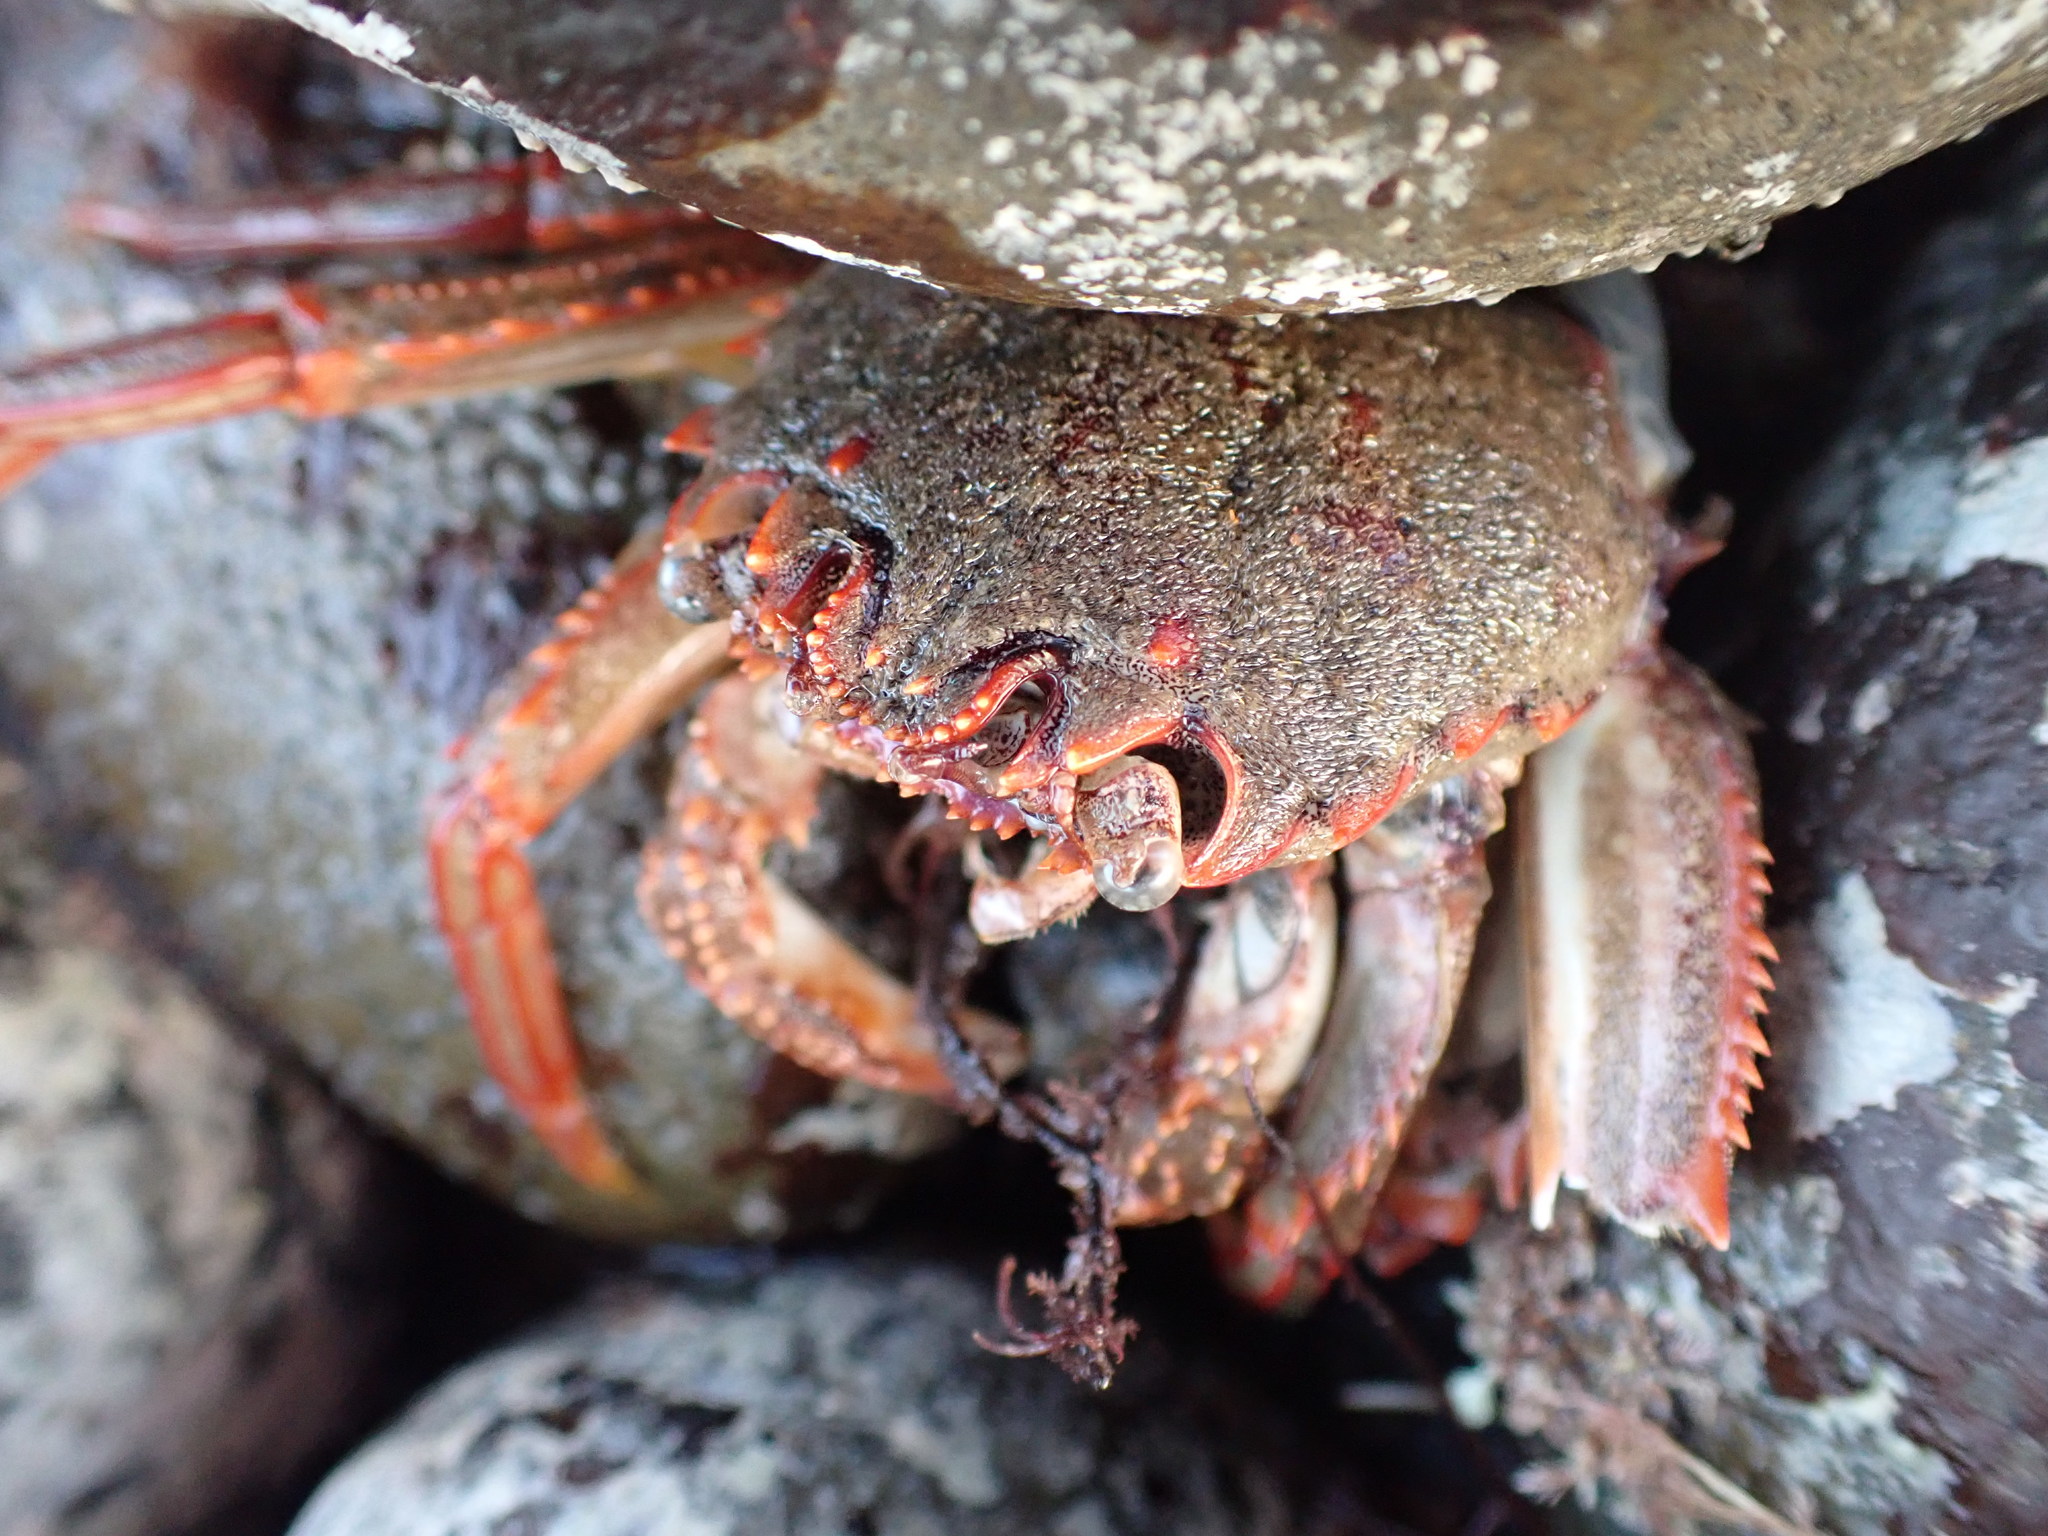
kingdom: Animalia
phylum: Arthropoda
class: Malacostraca
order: Decapoda
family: Plagusiidae
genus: Guinusia
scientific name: Guinusia chabrus
